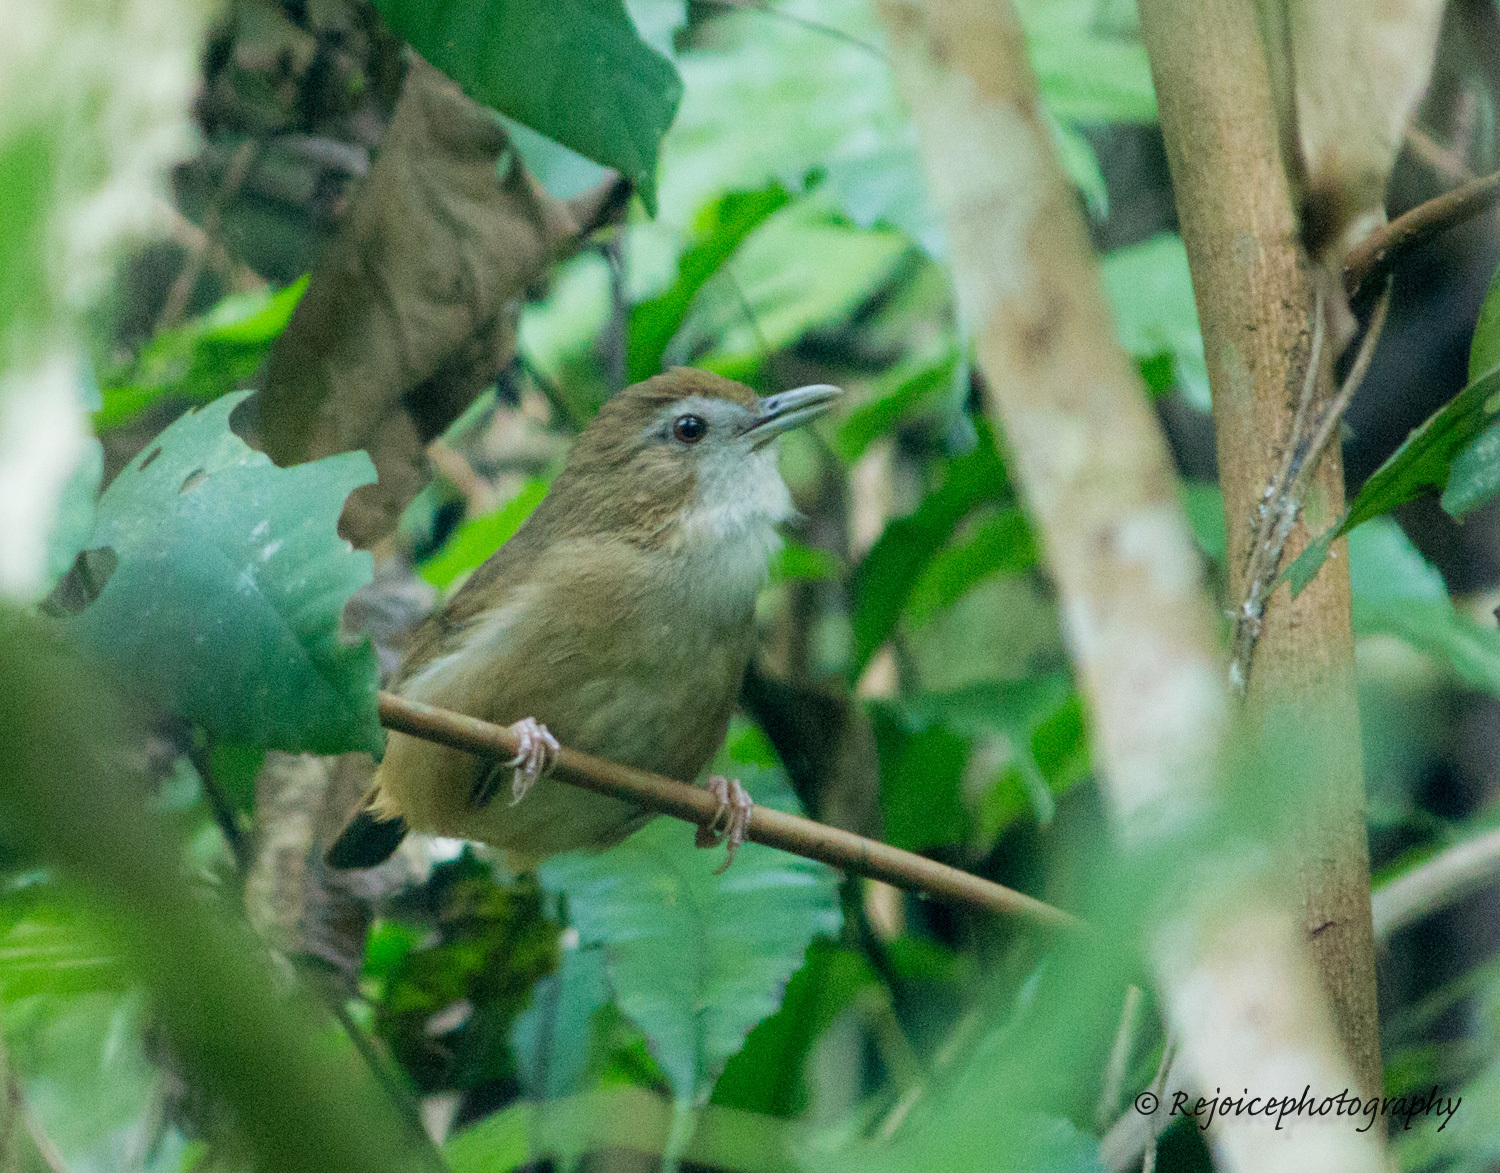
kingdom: Animalia
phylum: Chordata
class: Aves
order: Passeriformes
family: Pellorneidae
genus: Malacocincla
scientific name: Malacocincla abbotti
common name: Abbott's babbler
